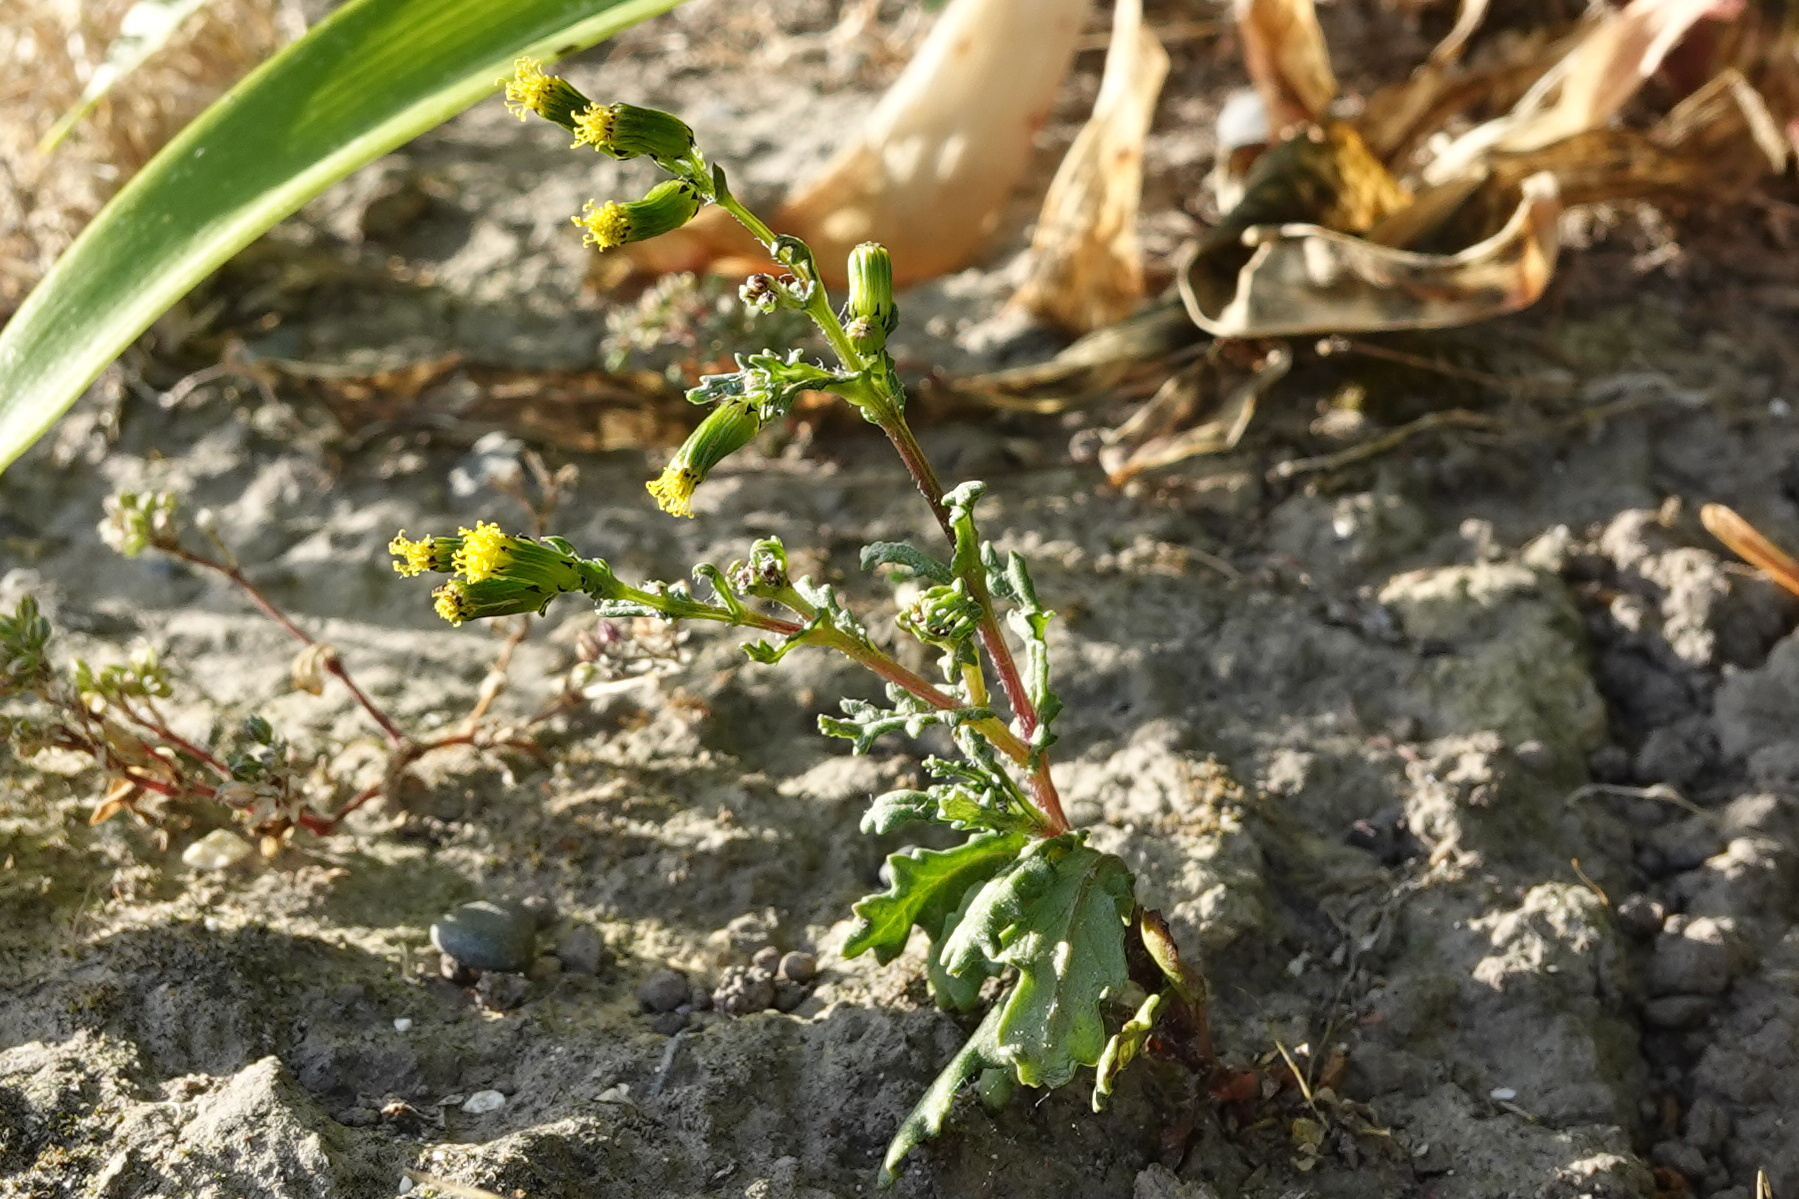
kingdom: Plantae
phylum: Tracheophyta
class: Magnoliopsida
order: Asterales
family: Asteraceae
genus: Senecio
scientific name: Senecio vulgaris
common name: Old-man-in-the-spring
